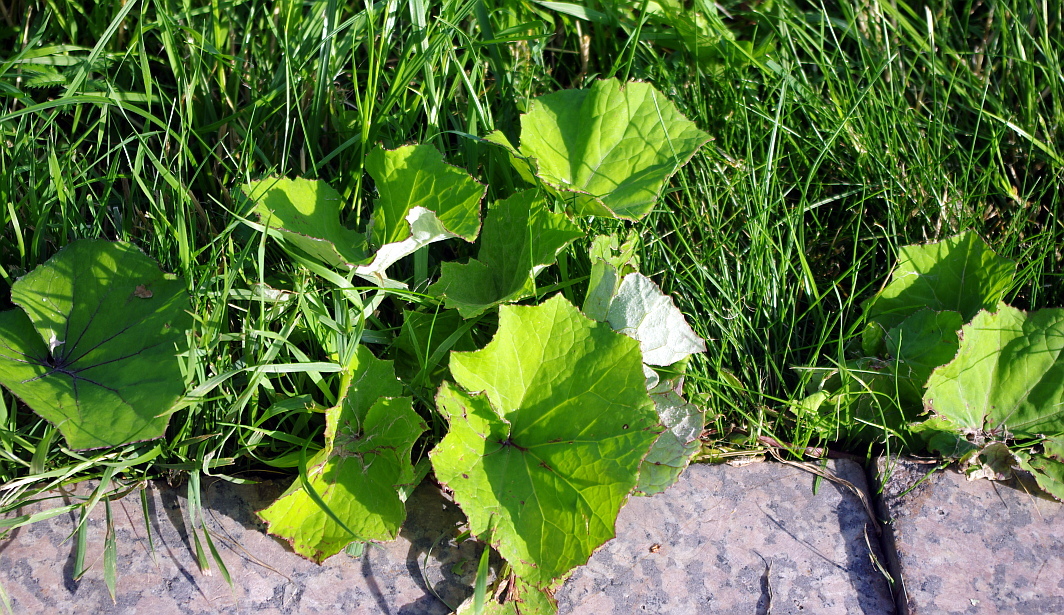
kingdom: Plantae
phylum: Tracheophyta
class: Magnoliopsida
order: Asterales
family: Asteraceae
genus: Tussilago
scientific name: Tussilago farfara
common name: Coltsfoot
